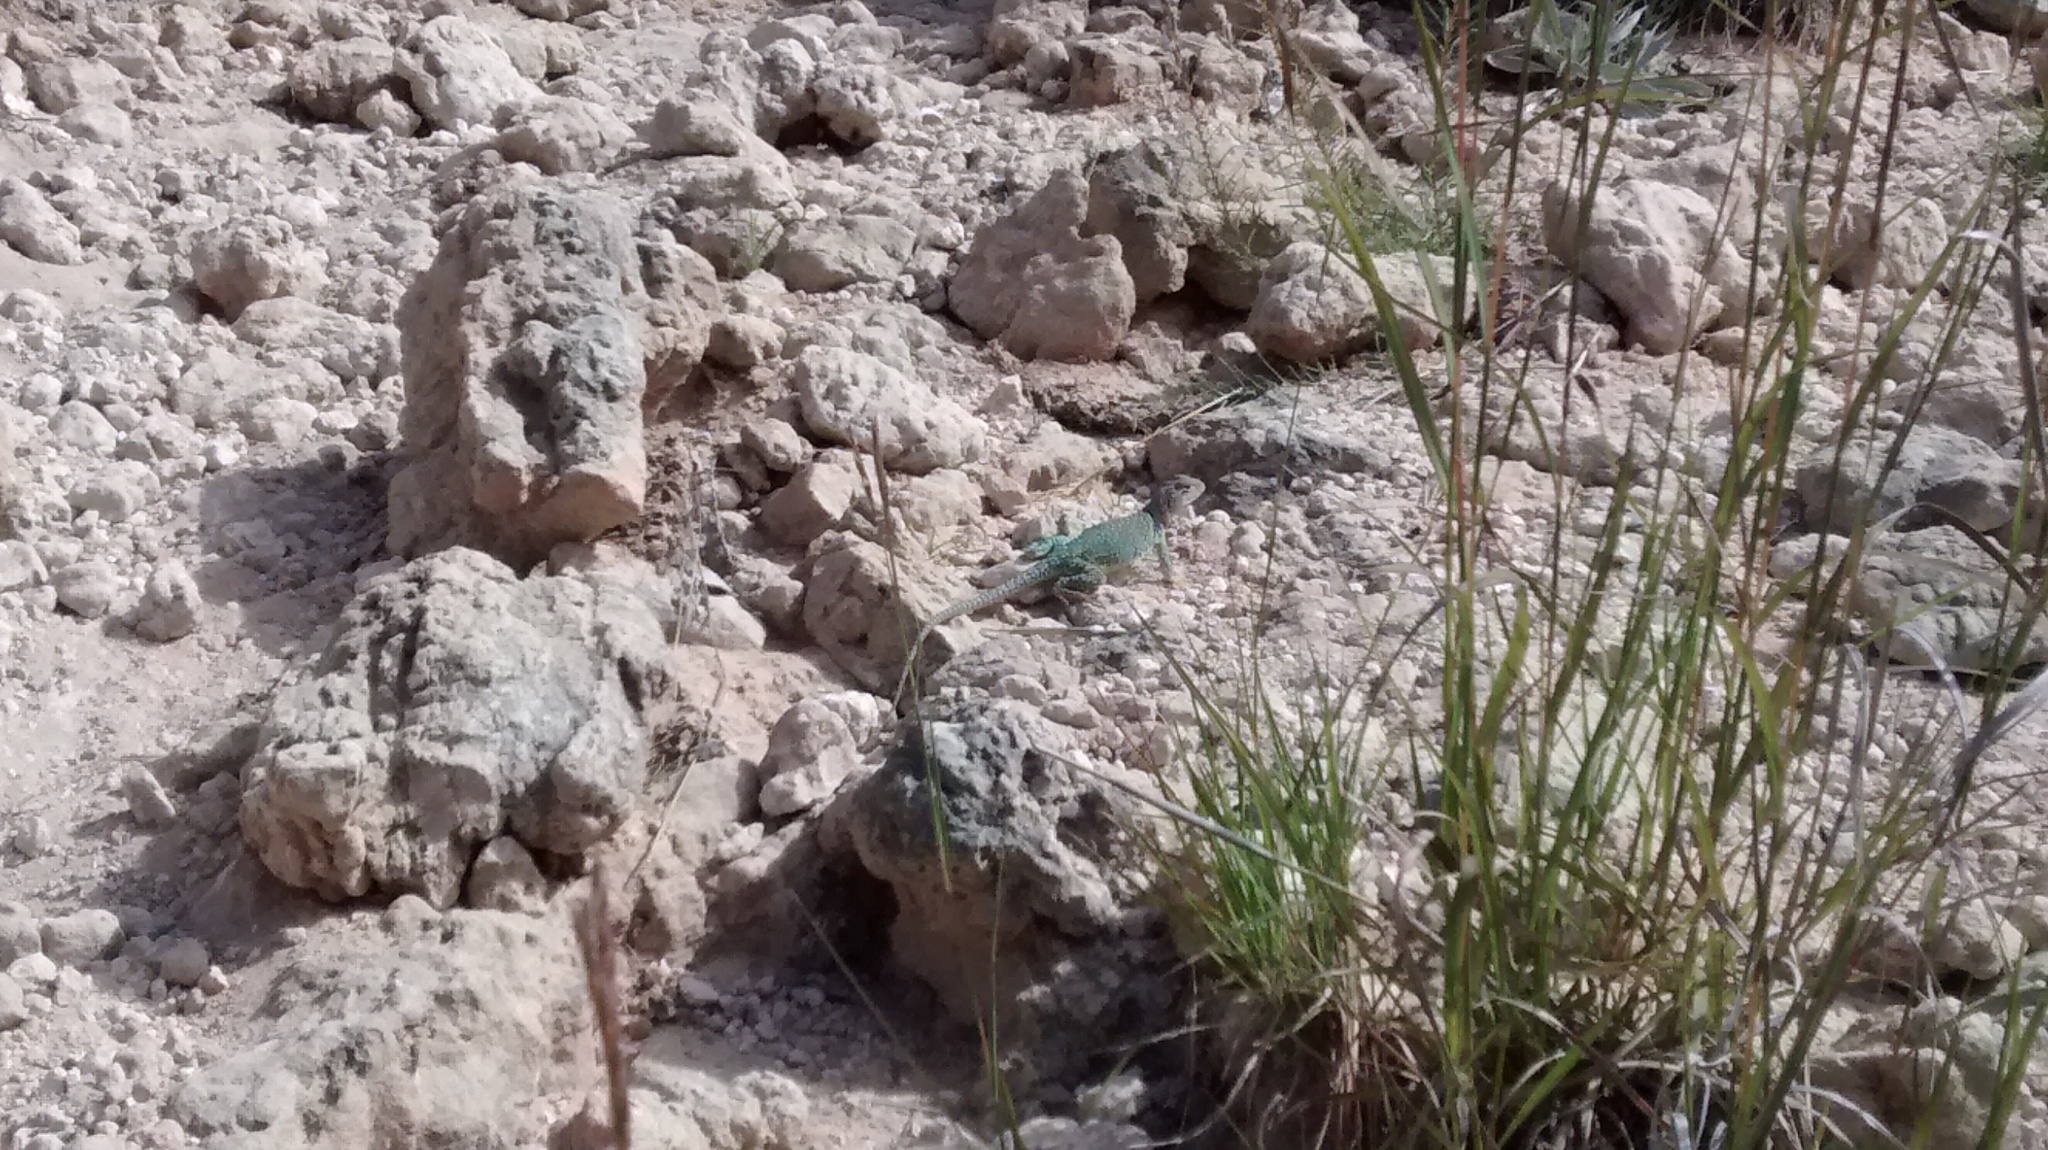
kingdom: Animalia
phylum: Chordata
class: Squamata
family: Crotaphytidae
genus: Crotaphytus
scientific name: Crotaphytus collaris
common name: Collared lizard
